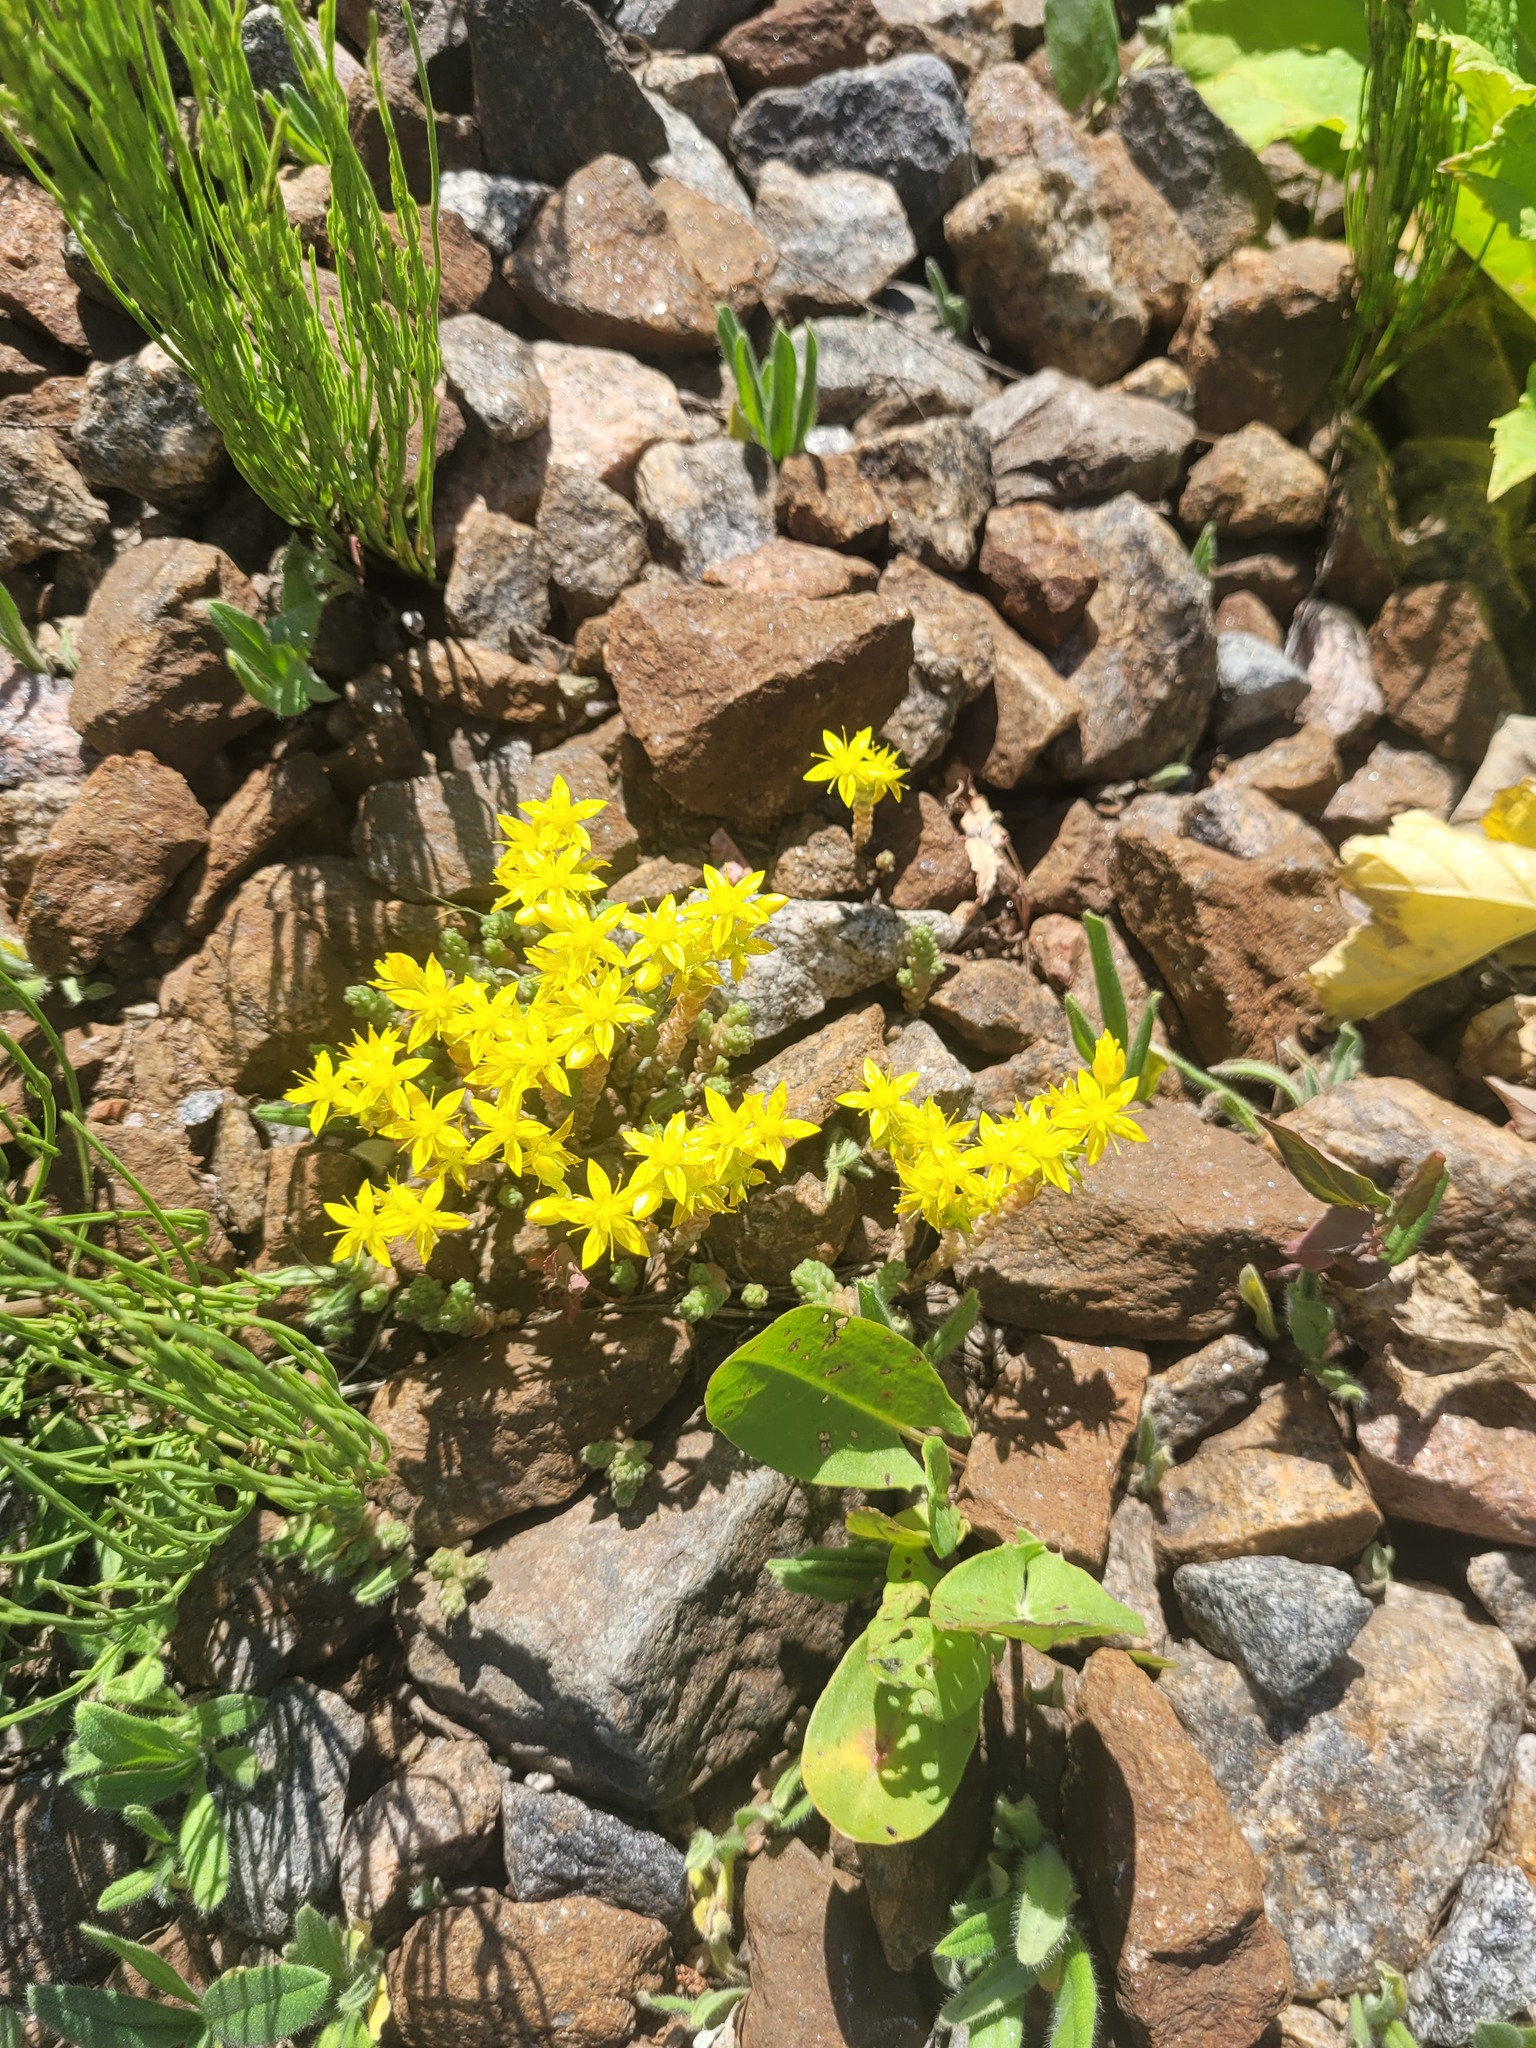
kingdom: Plantae
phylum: Tracheophyta
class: Magnoliopsida
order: Saxifragales
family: Crassulaceae
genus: Sedum
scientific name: Sedum acre
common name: Biting stonecrop
